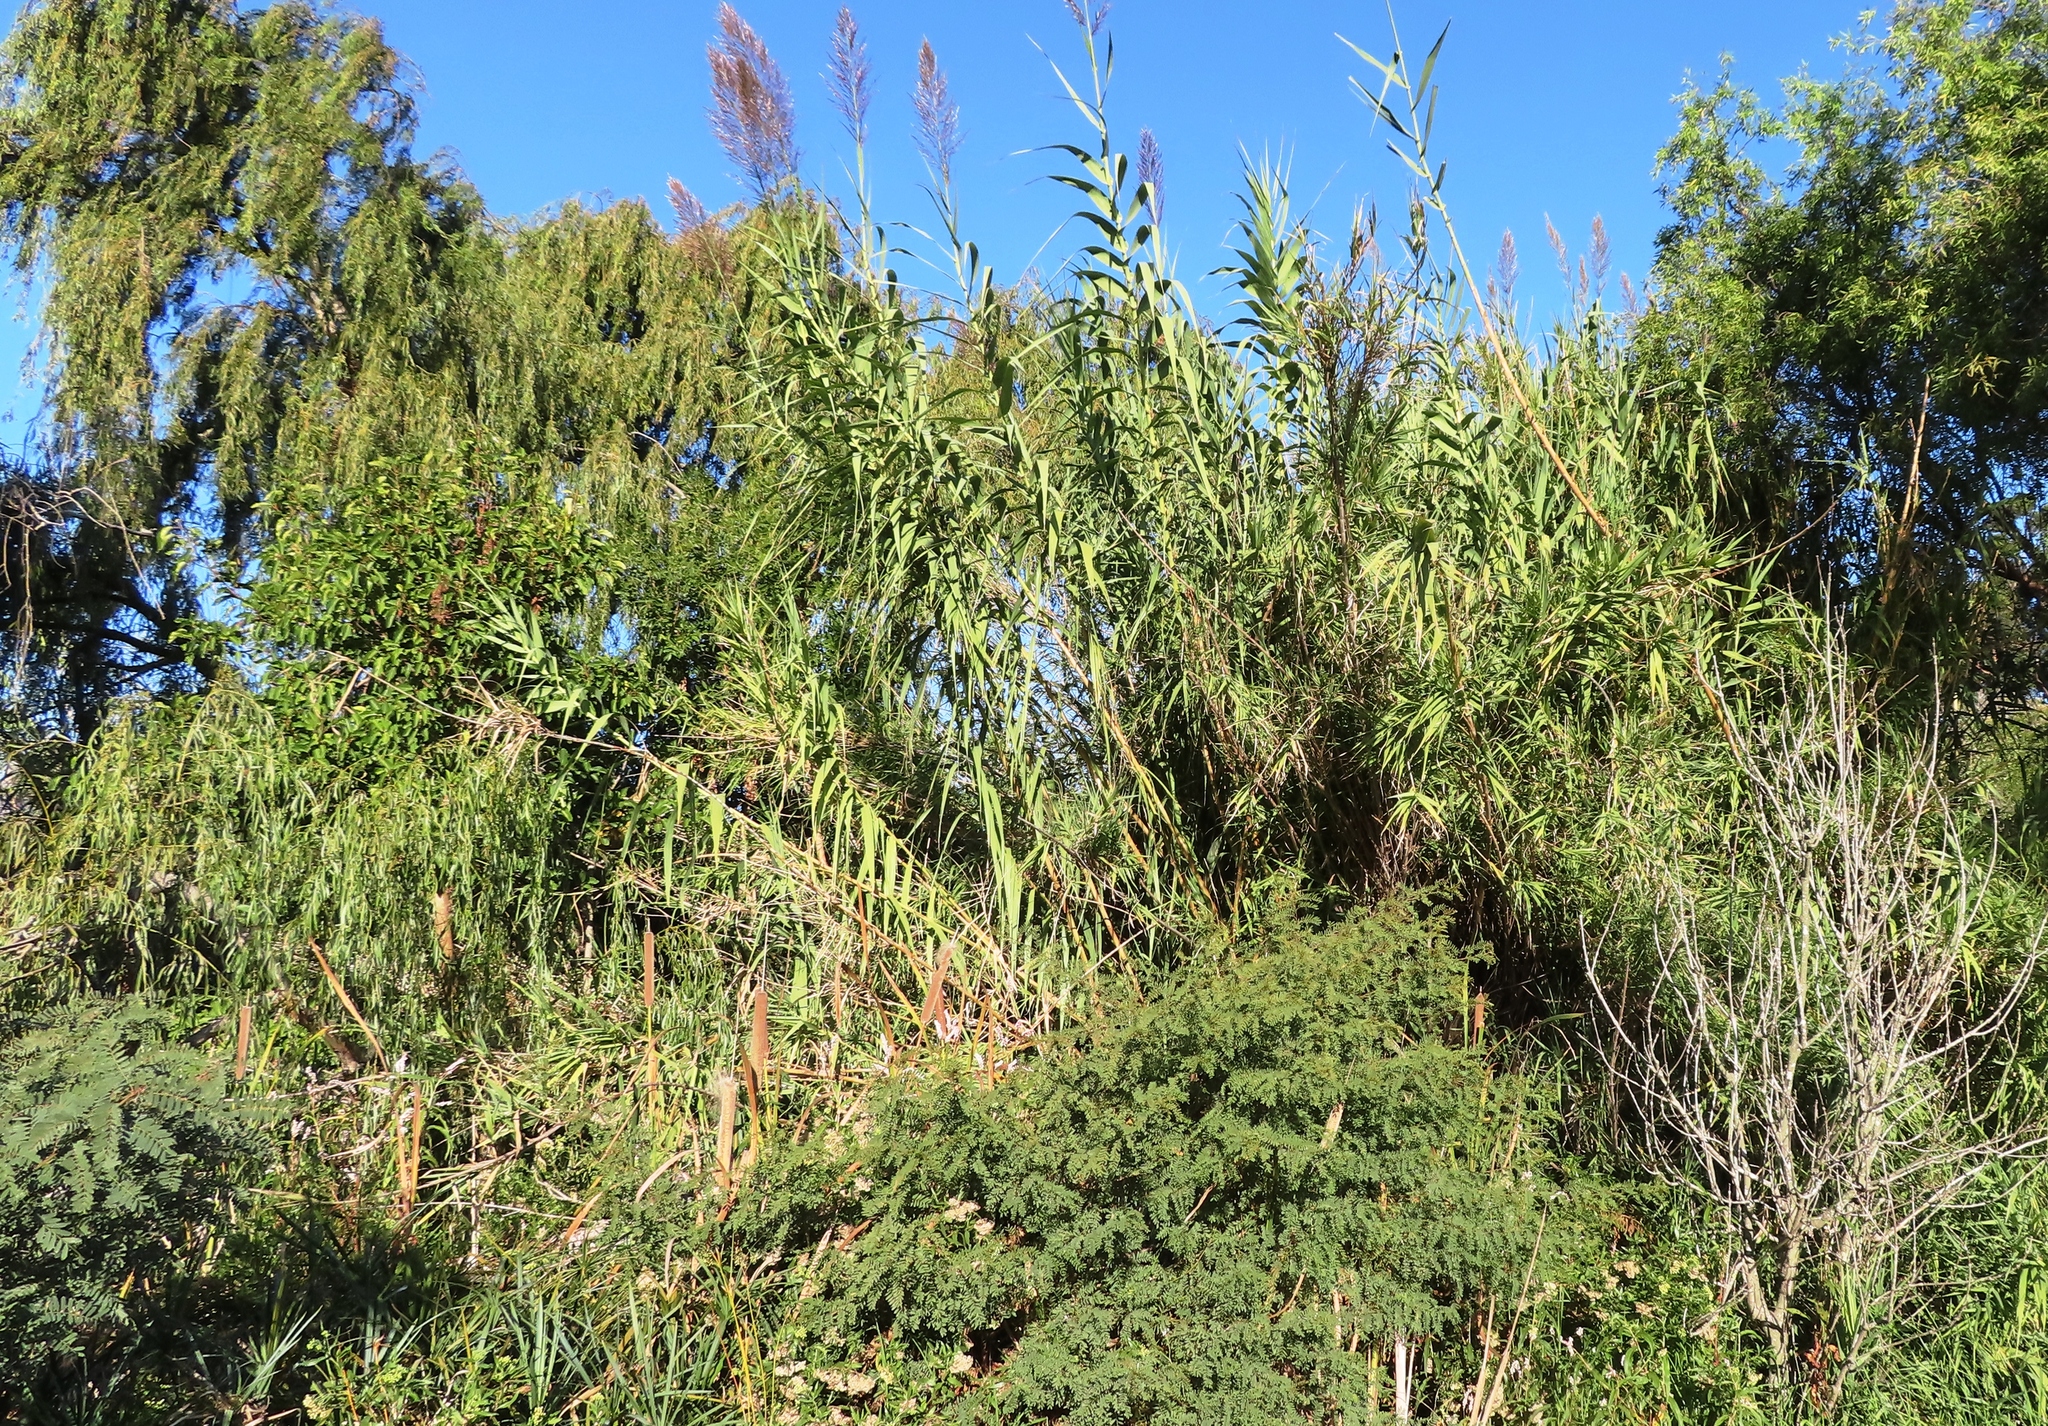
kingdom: Plantae
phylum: Tracheophyta
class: Liliopsida
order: Poales
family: Poaceae
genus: Arundo
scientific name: Arundo donax
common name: Giant reed
